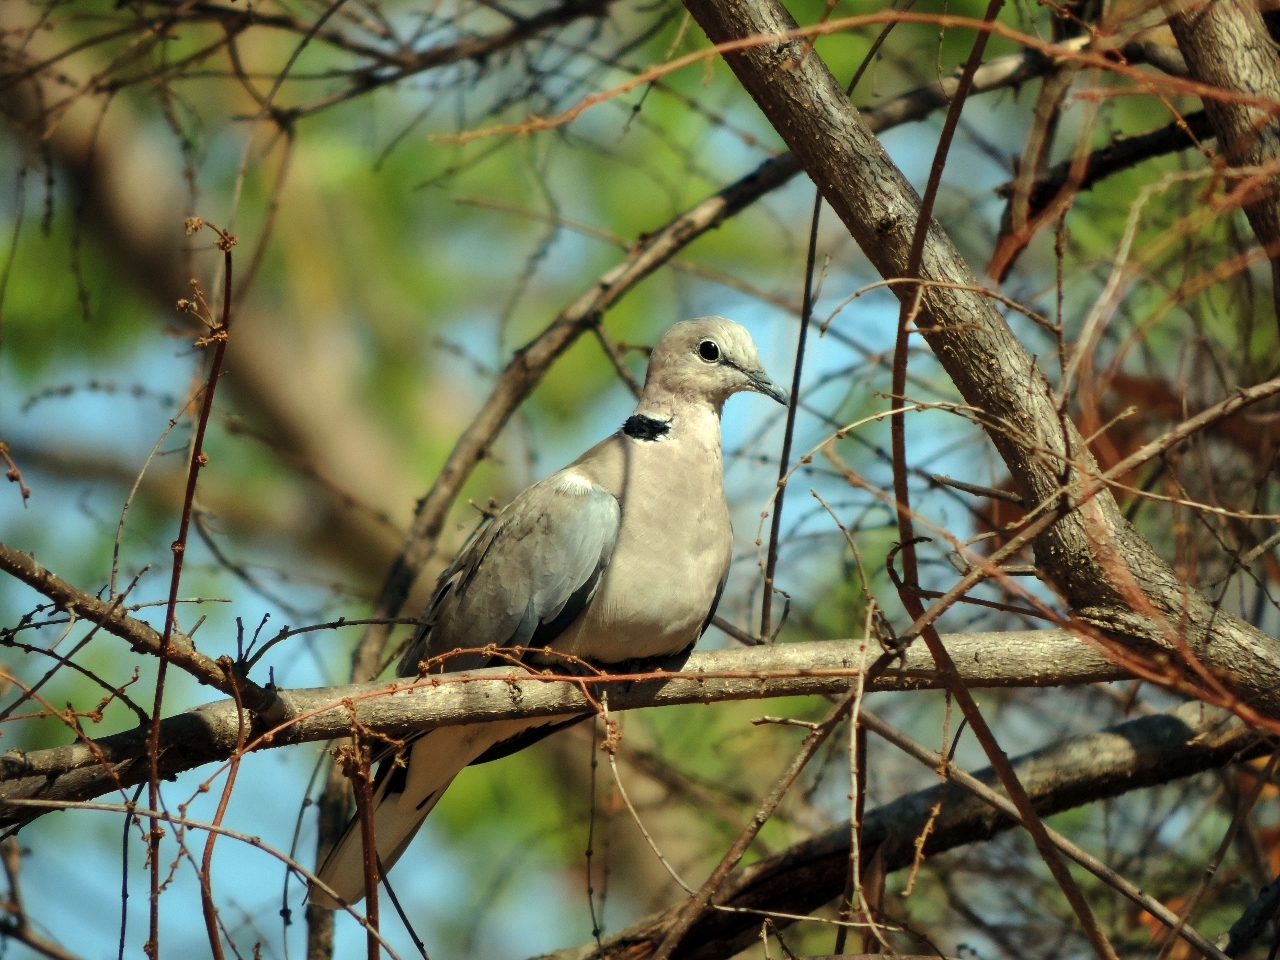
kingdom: Animalia
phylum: Chordata
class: Aves
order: Columbiformes
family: Columbidae
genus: Streptopelia
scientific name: Streptopelia capicola
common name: Ring-necked dove
